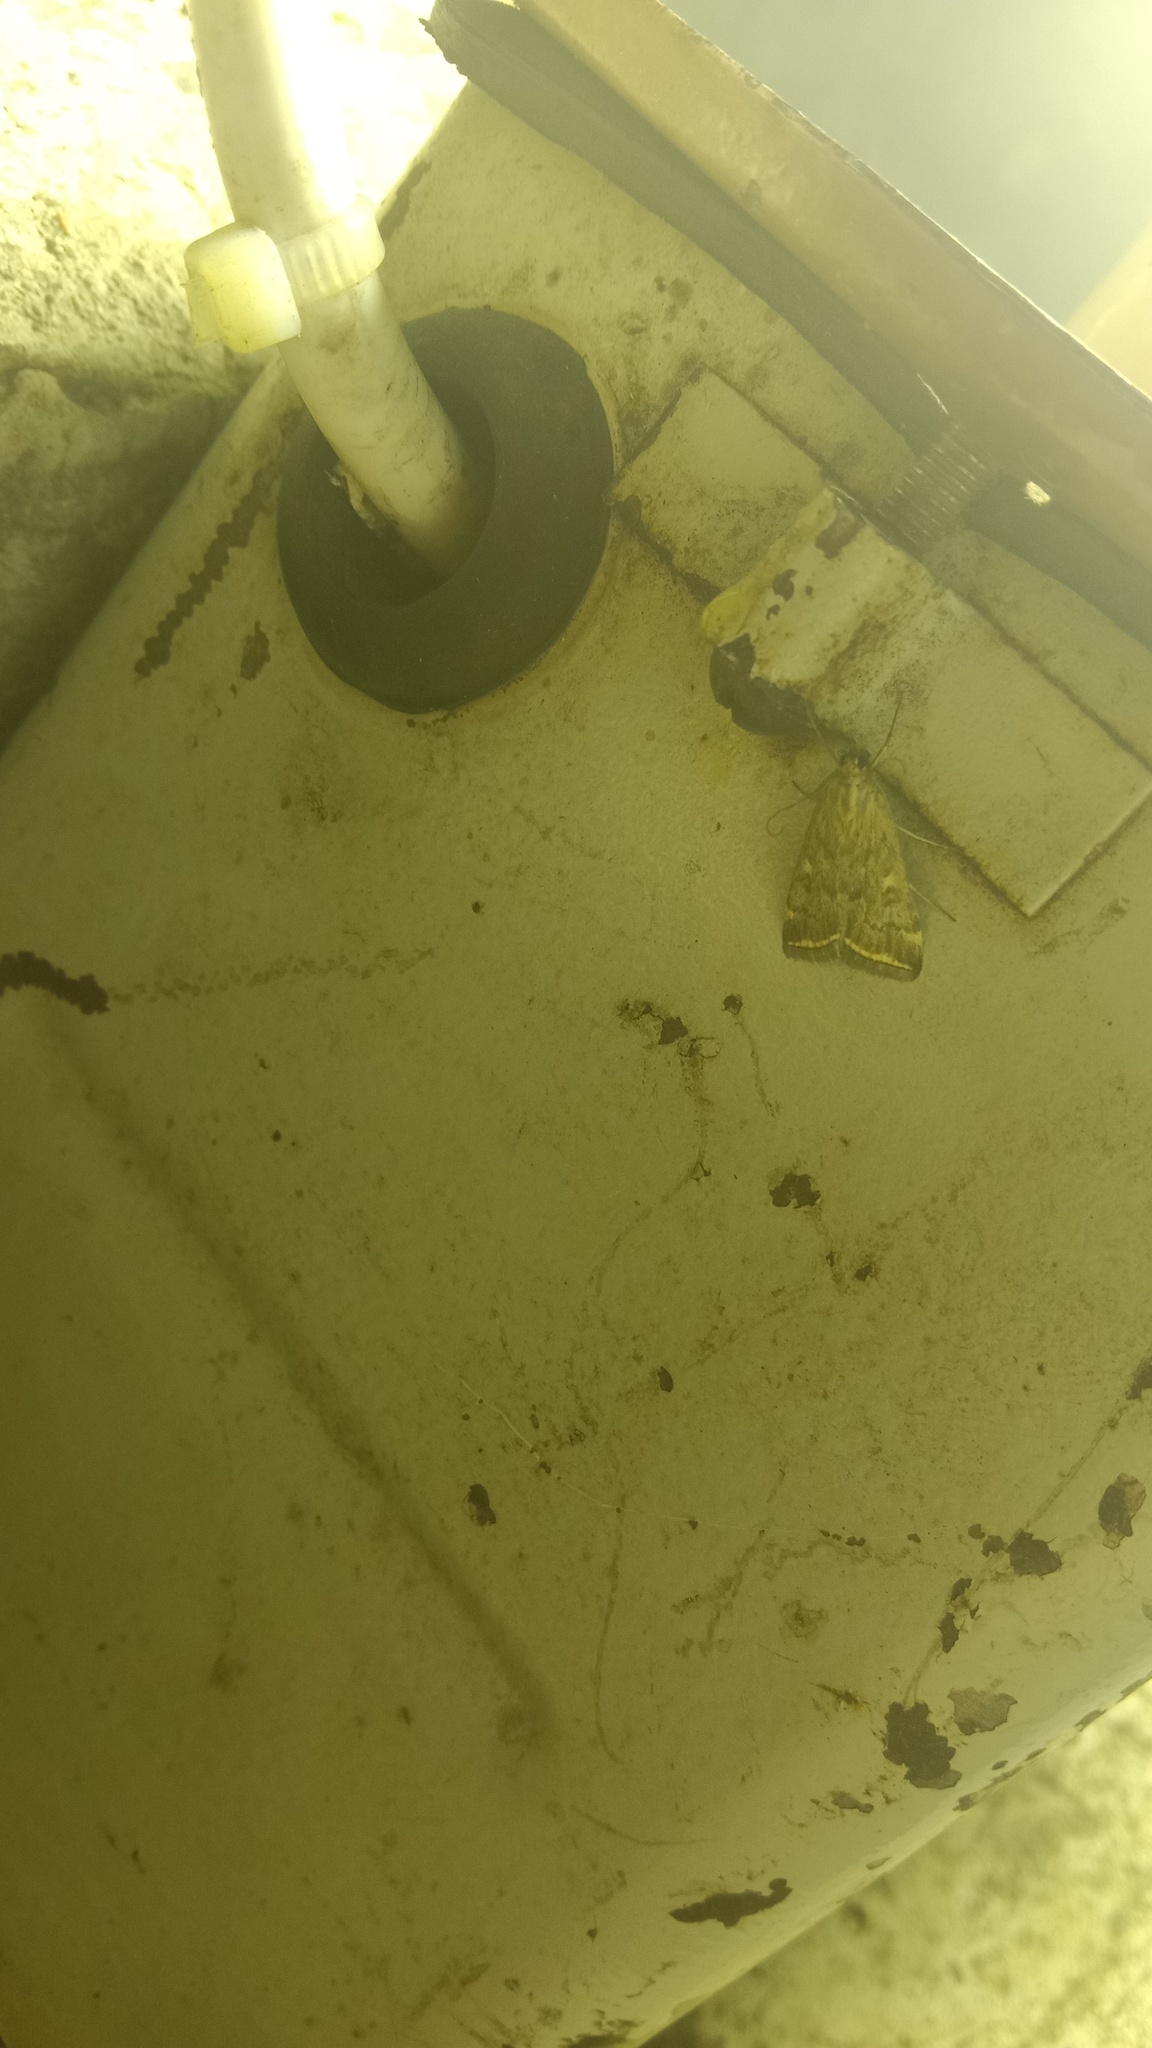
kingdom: Animalia
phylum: Arthropoda
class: Insecta
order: Lepidoptera
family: Crambidae
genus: Loxostege
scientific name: Loxostege sticticalis
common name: Crambid moth
